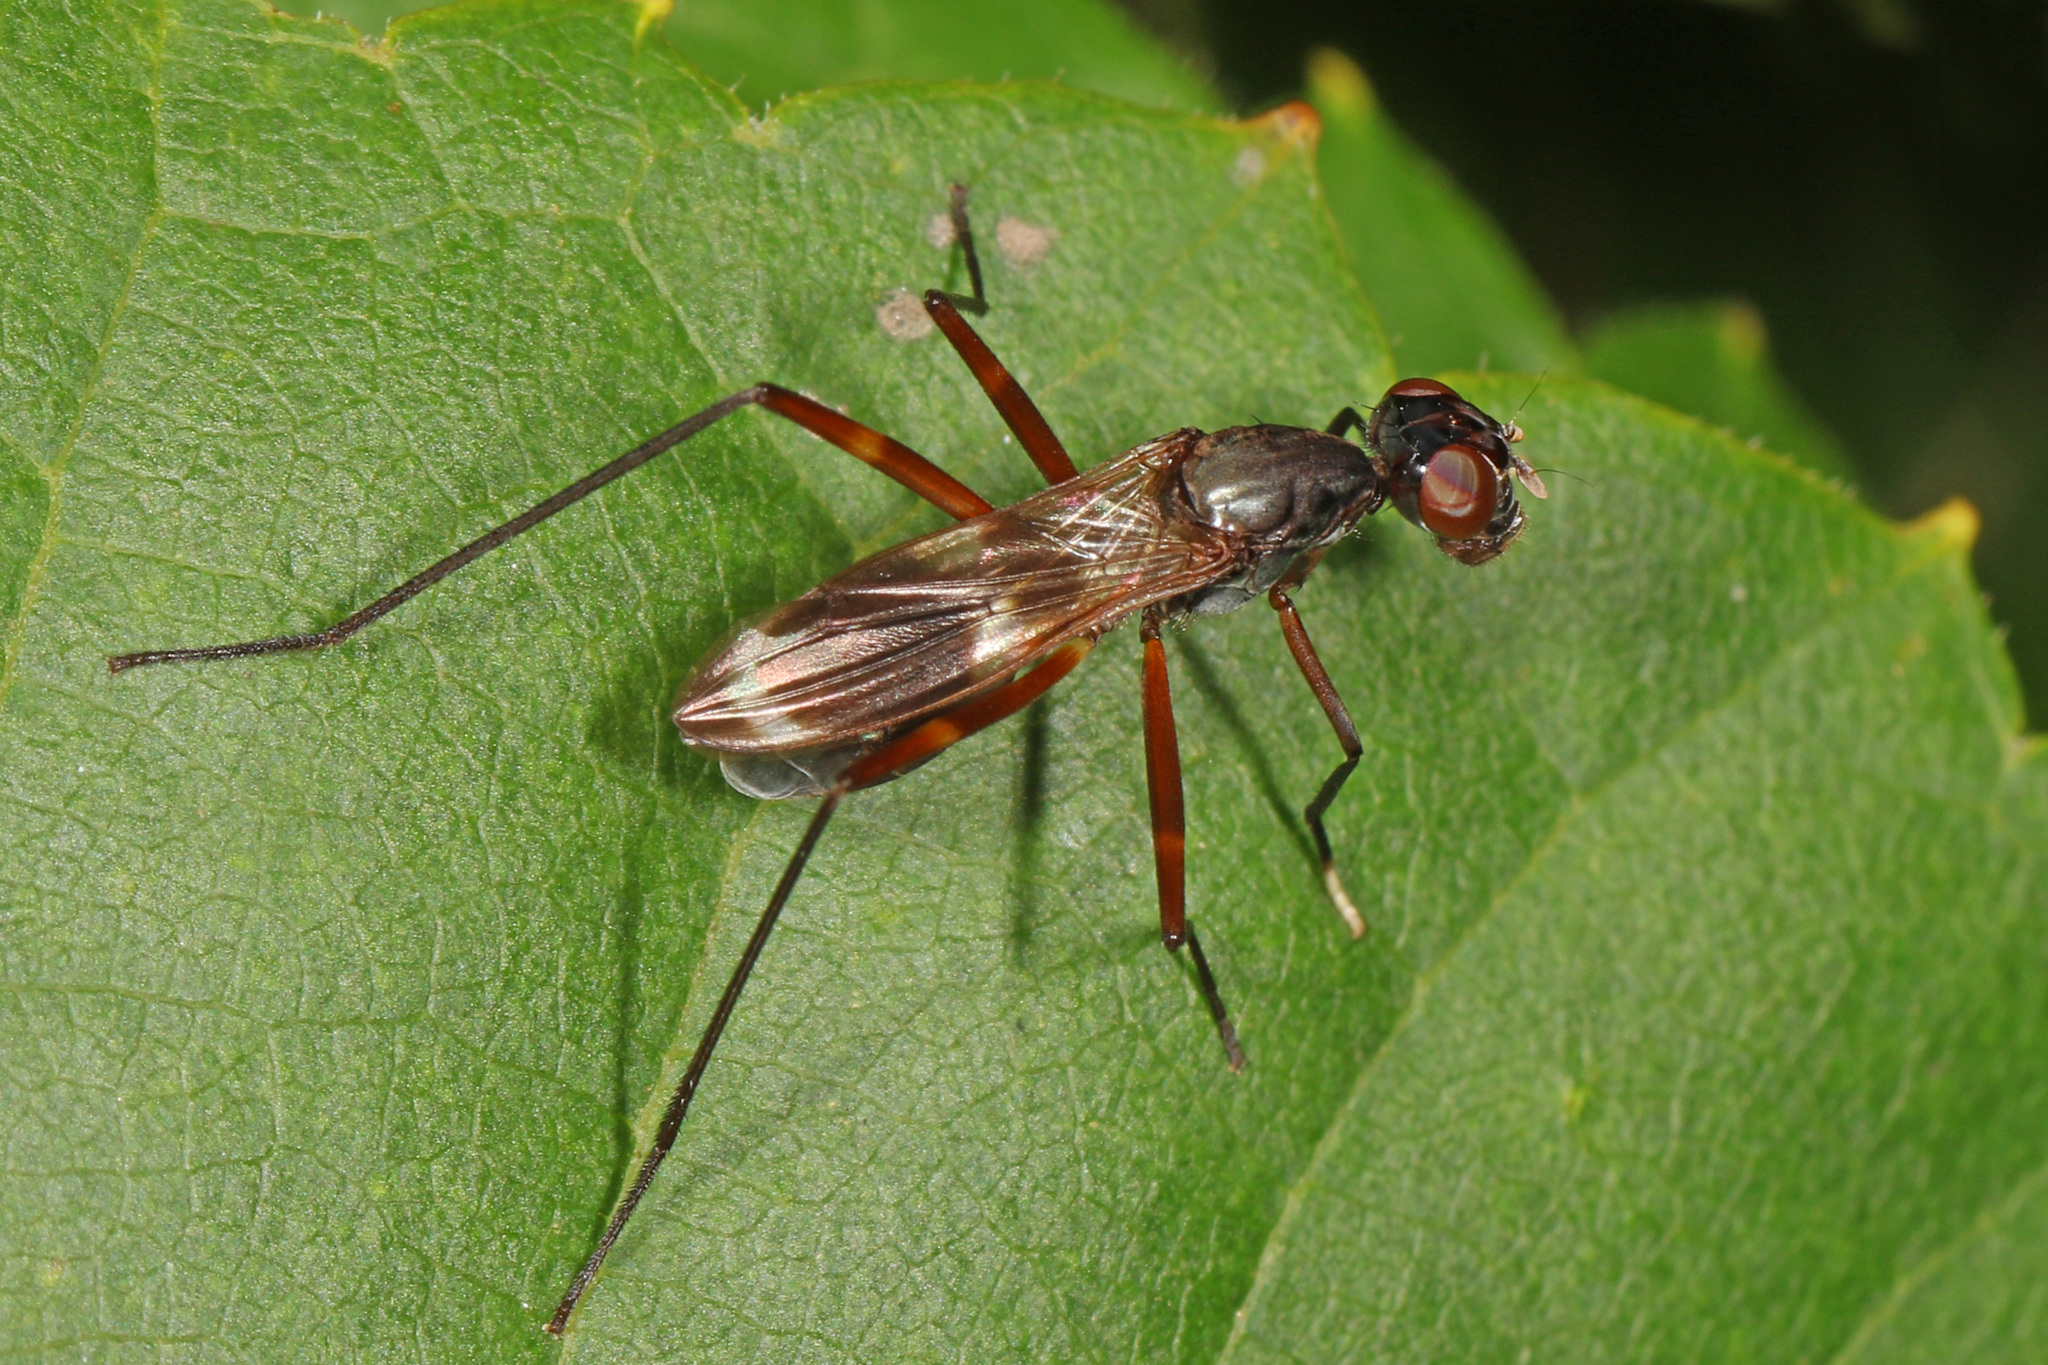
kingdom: Animalia
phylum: Arthropoda
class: Insecta
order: Diptera
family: Micropezidae
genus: Taeniaptera
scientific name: Taeniaptera trivittata
